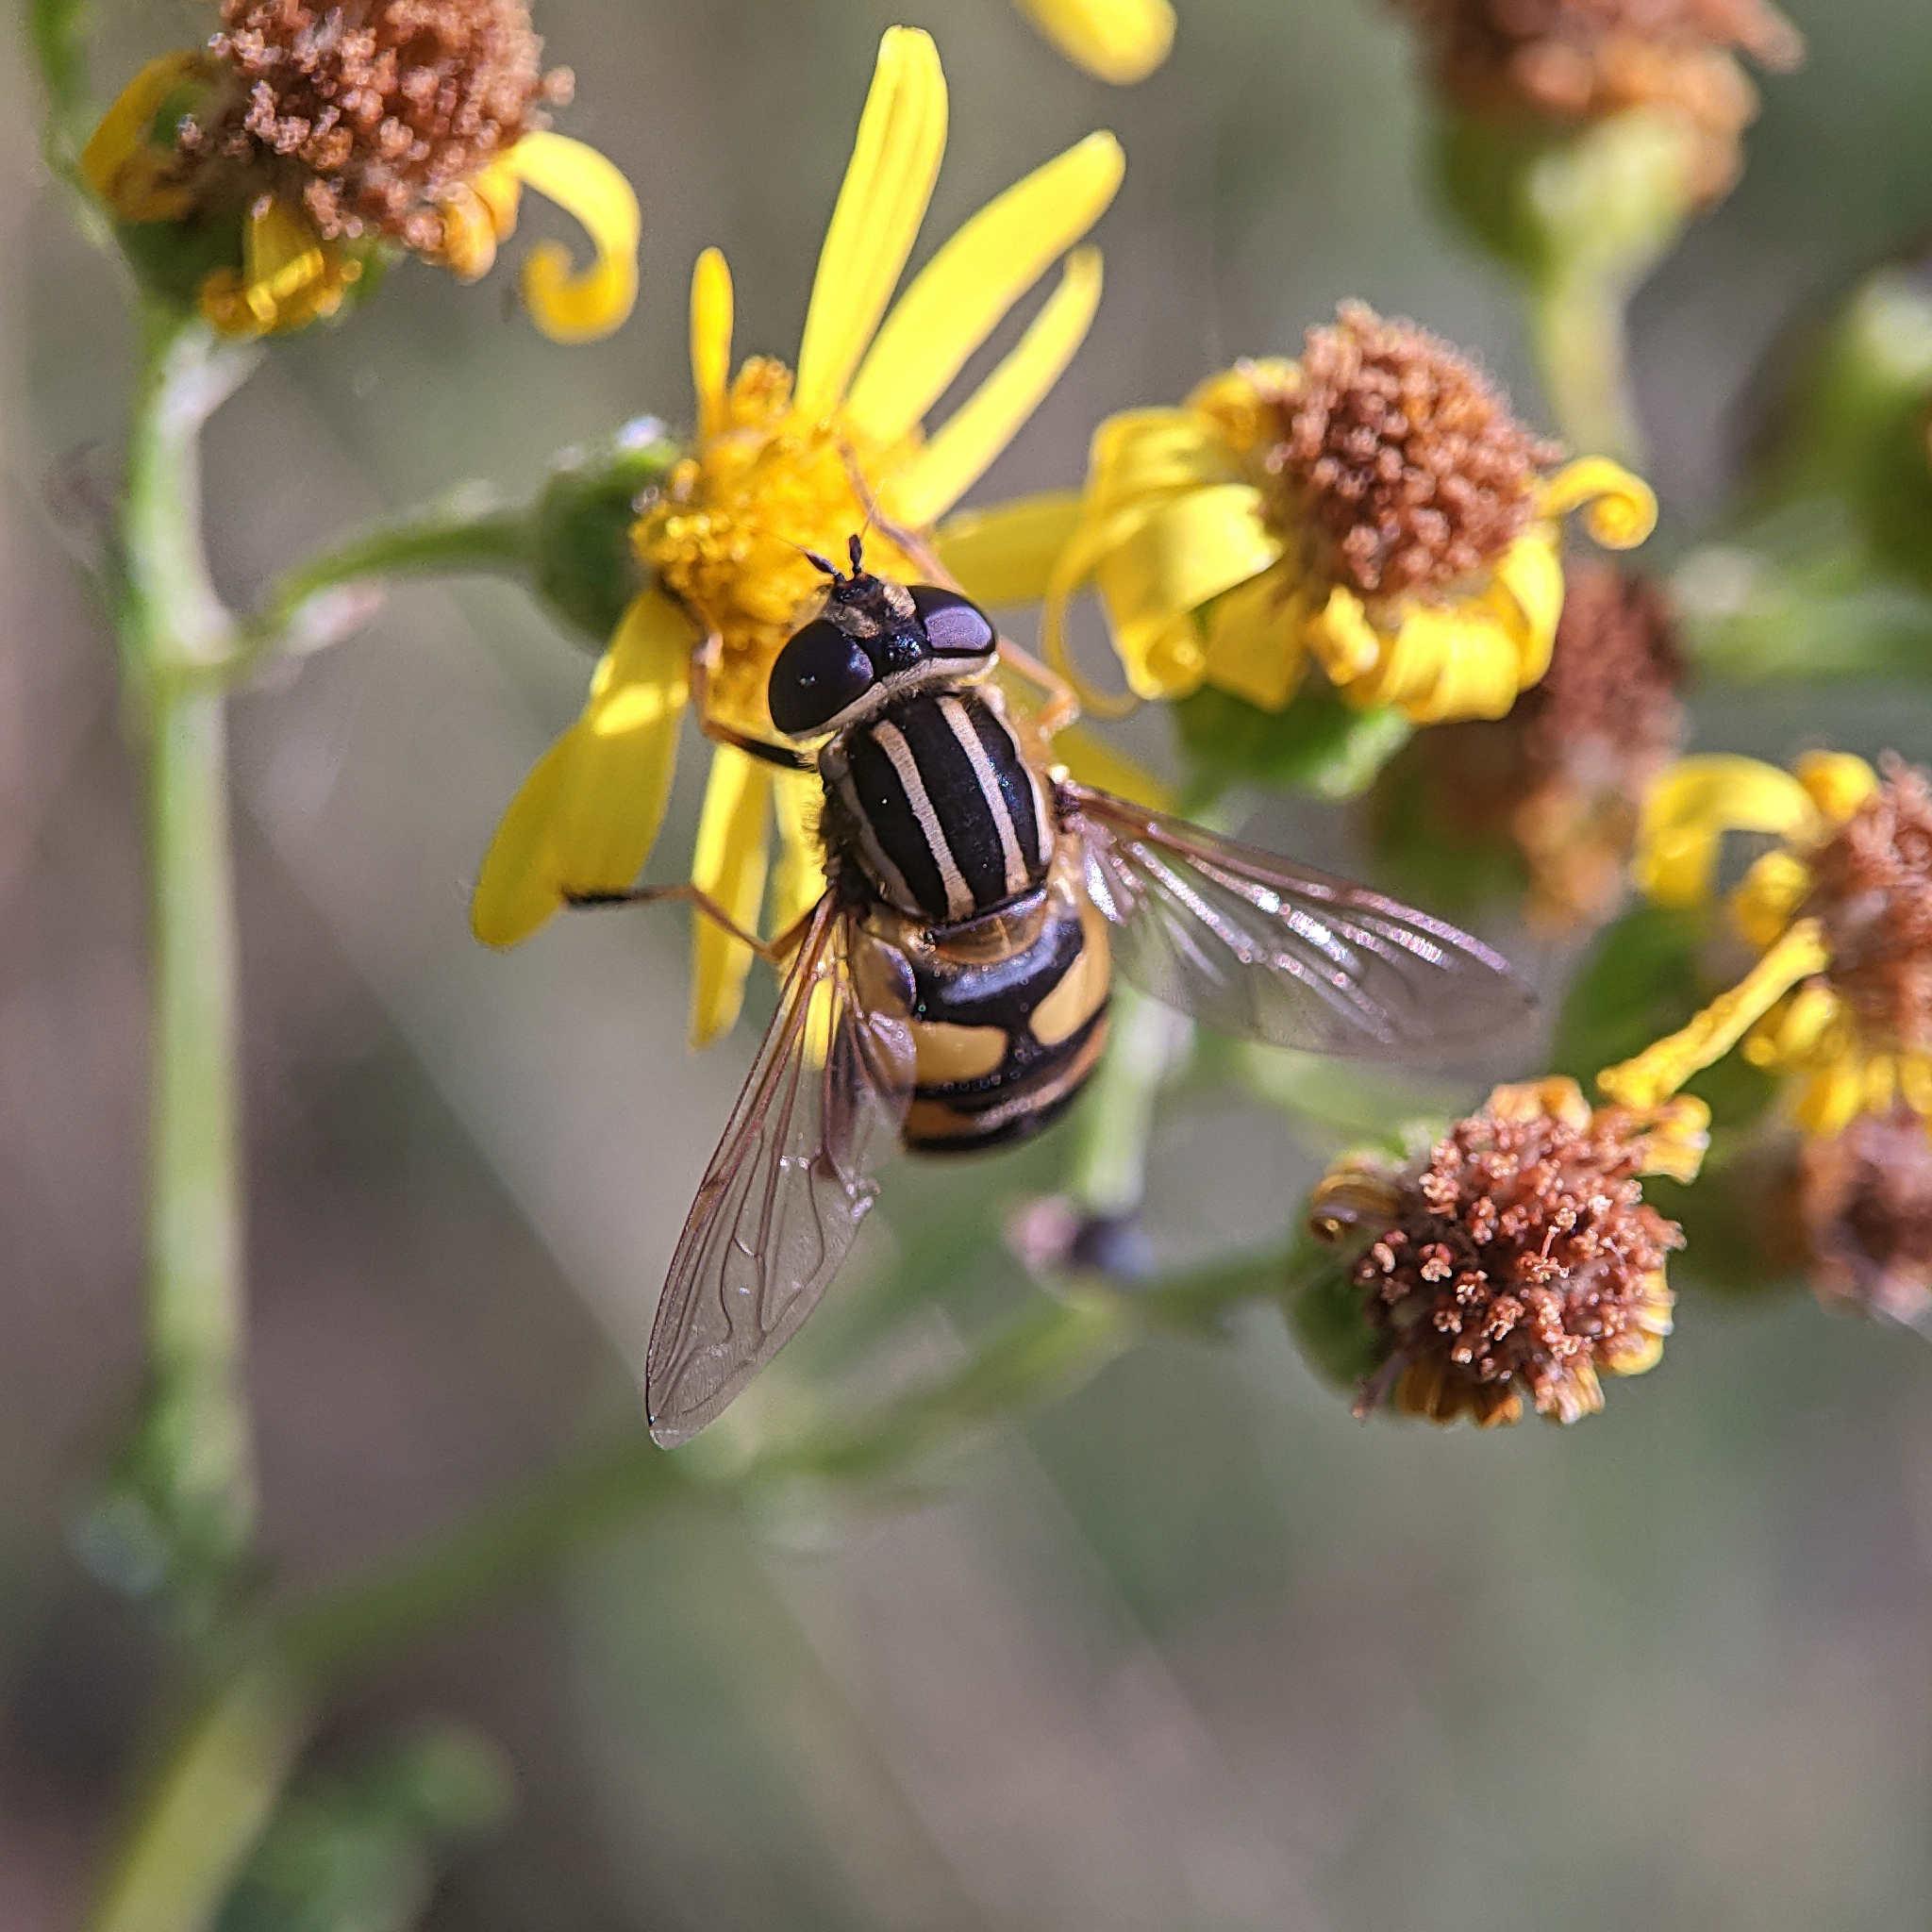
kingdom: Animalia
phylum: Arthropoda
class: Insecta
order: Diptera
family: Syrphidae
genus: Helophilus
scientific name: Helophilus pendulus
